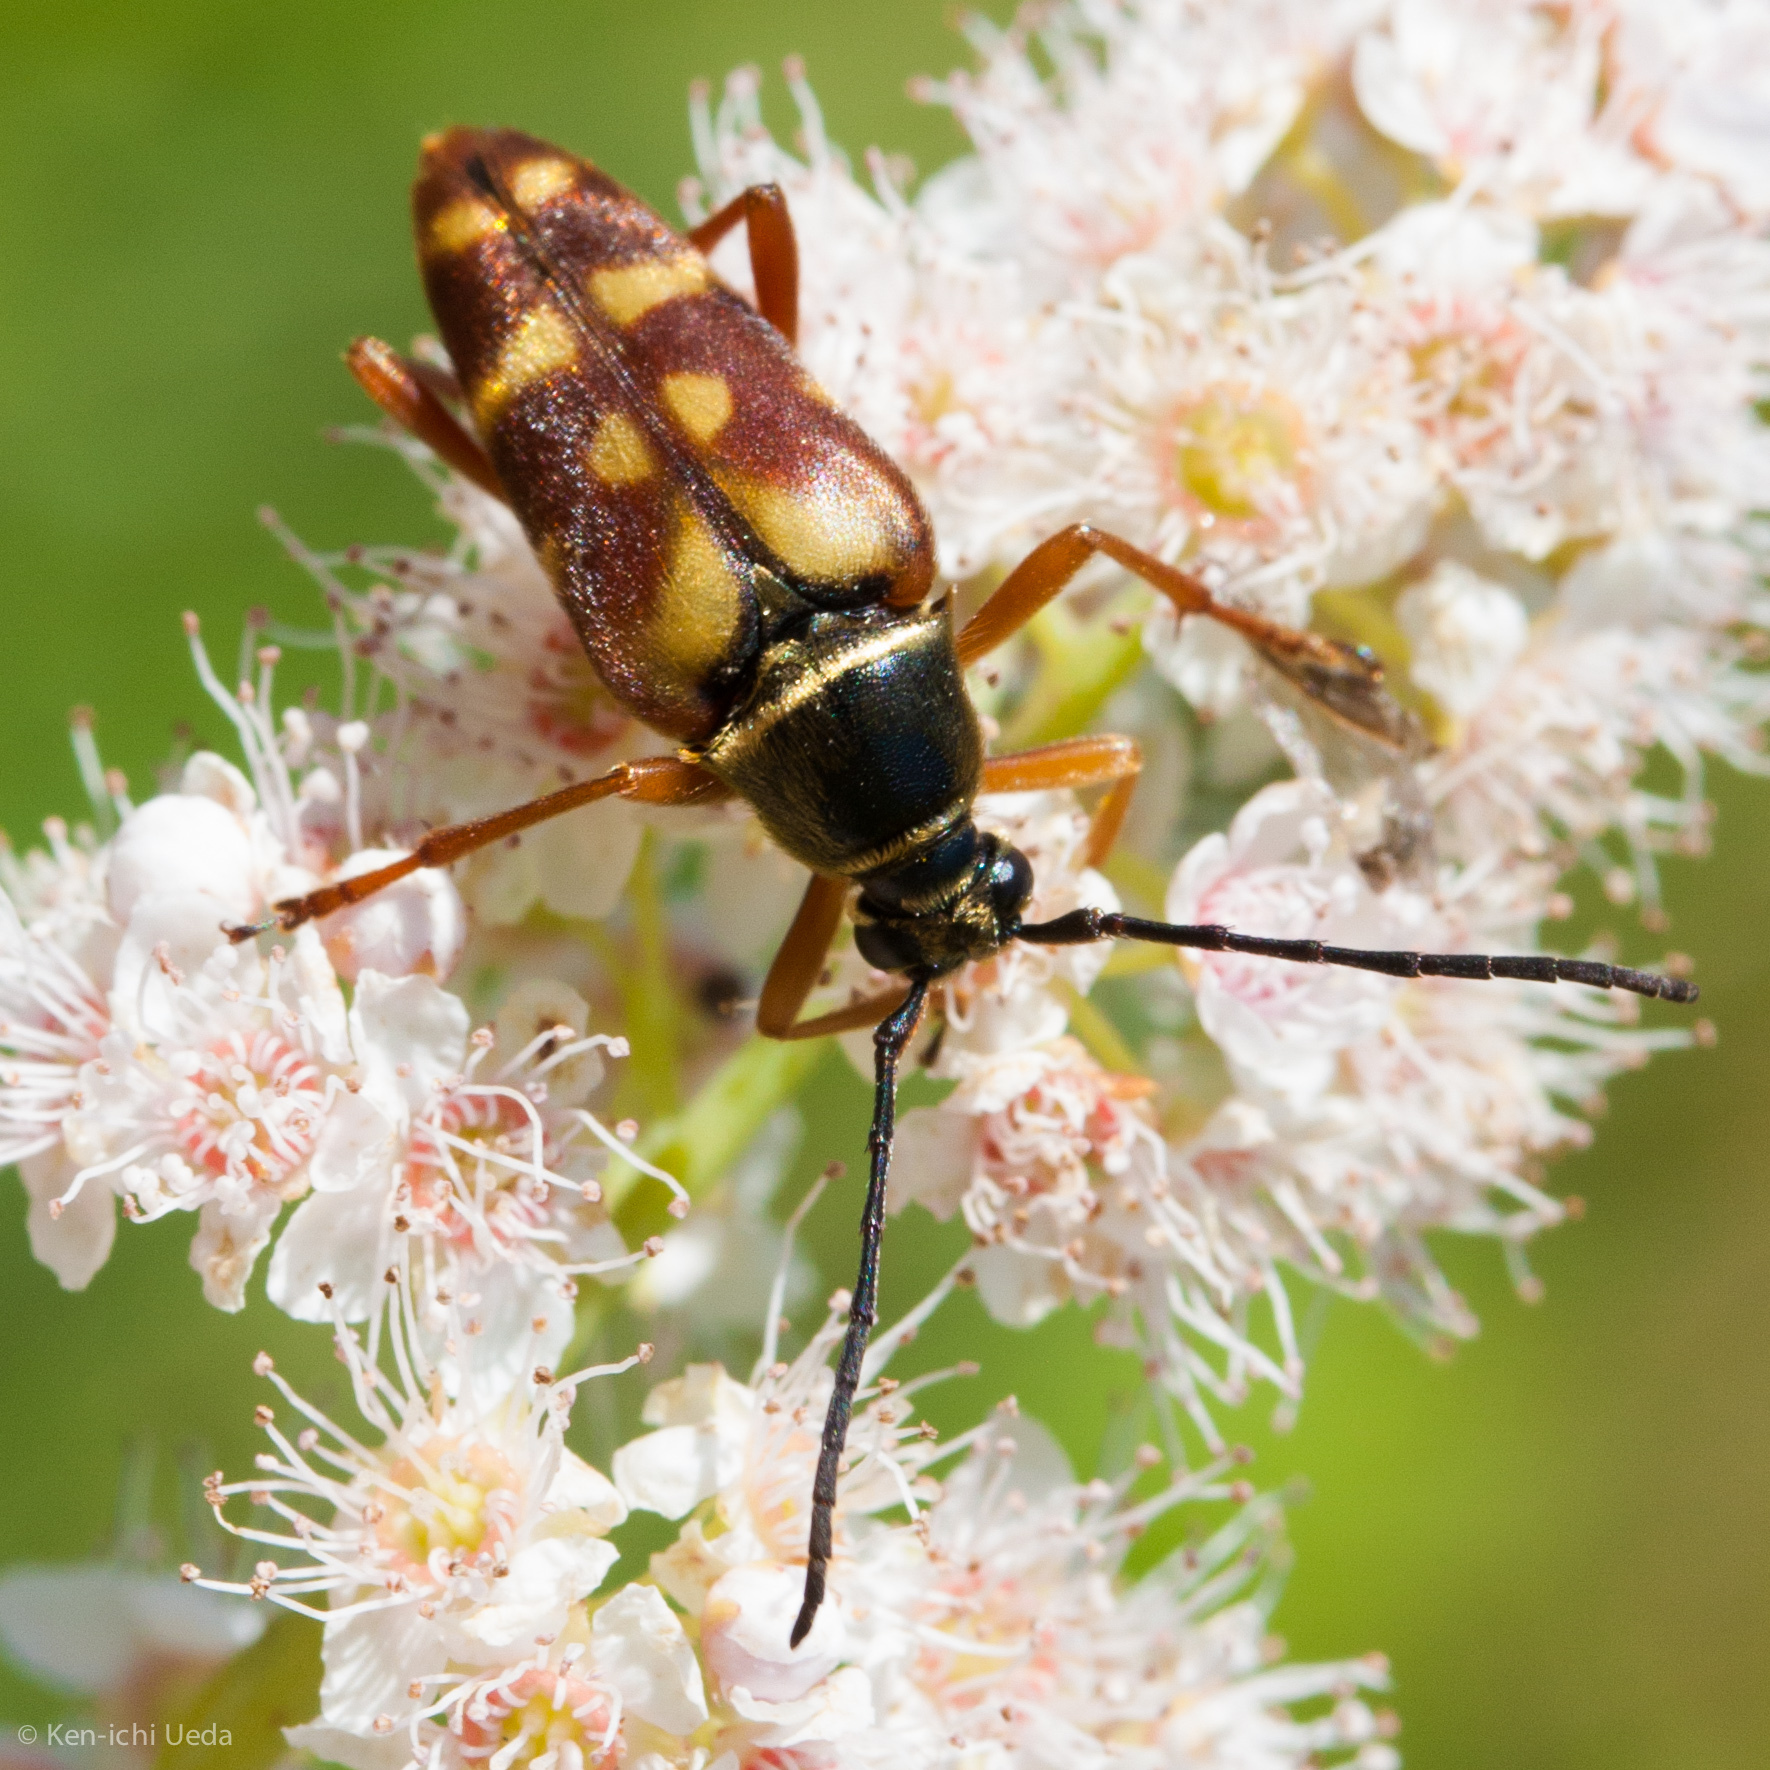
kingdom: Animalia
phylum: Arthropoda
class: Insecta
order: Coleoptera
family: Cerambycidae
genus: Typocerus
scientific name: Typocerus velutinus
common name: Banded longhorn beetle
